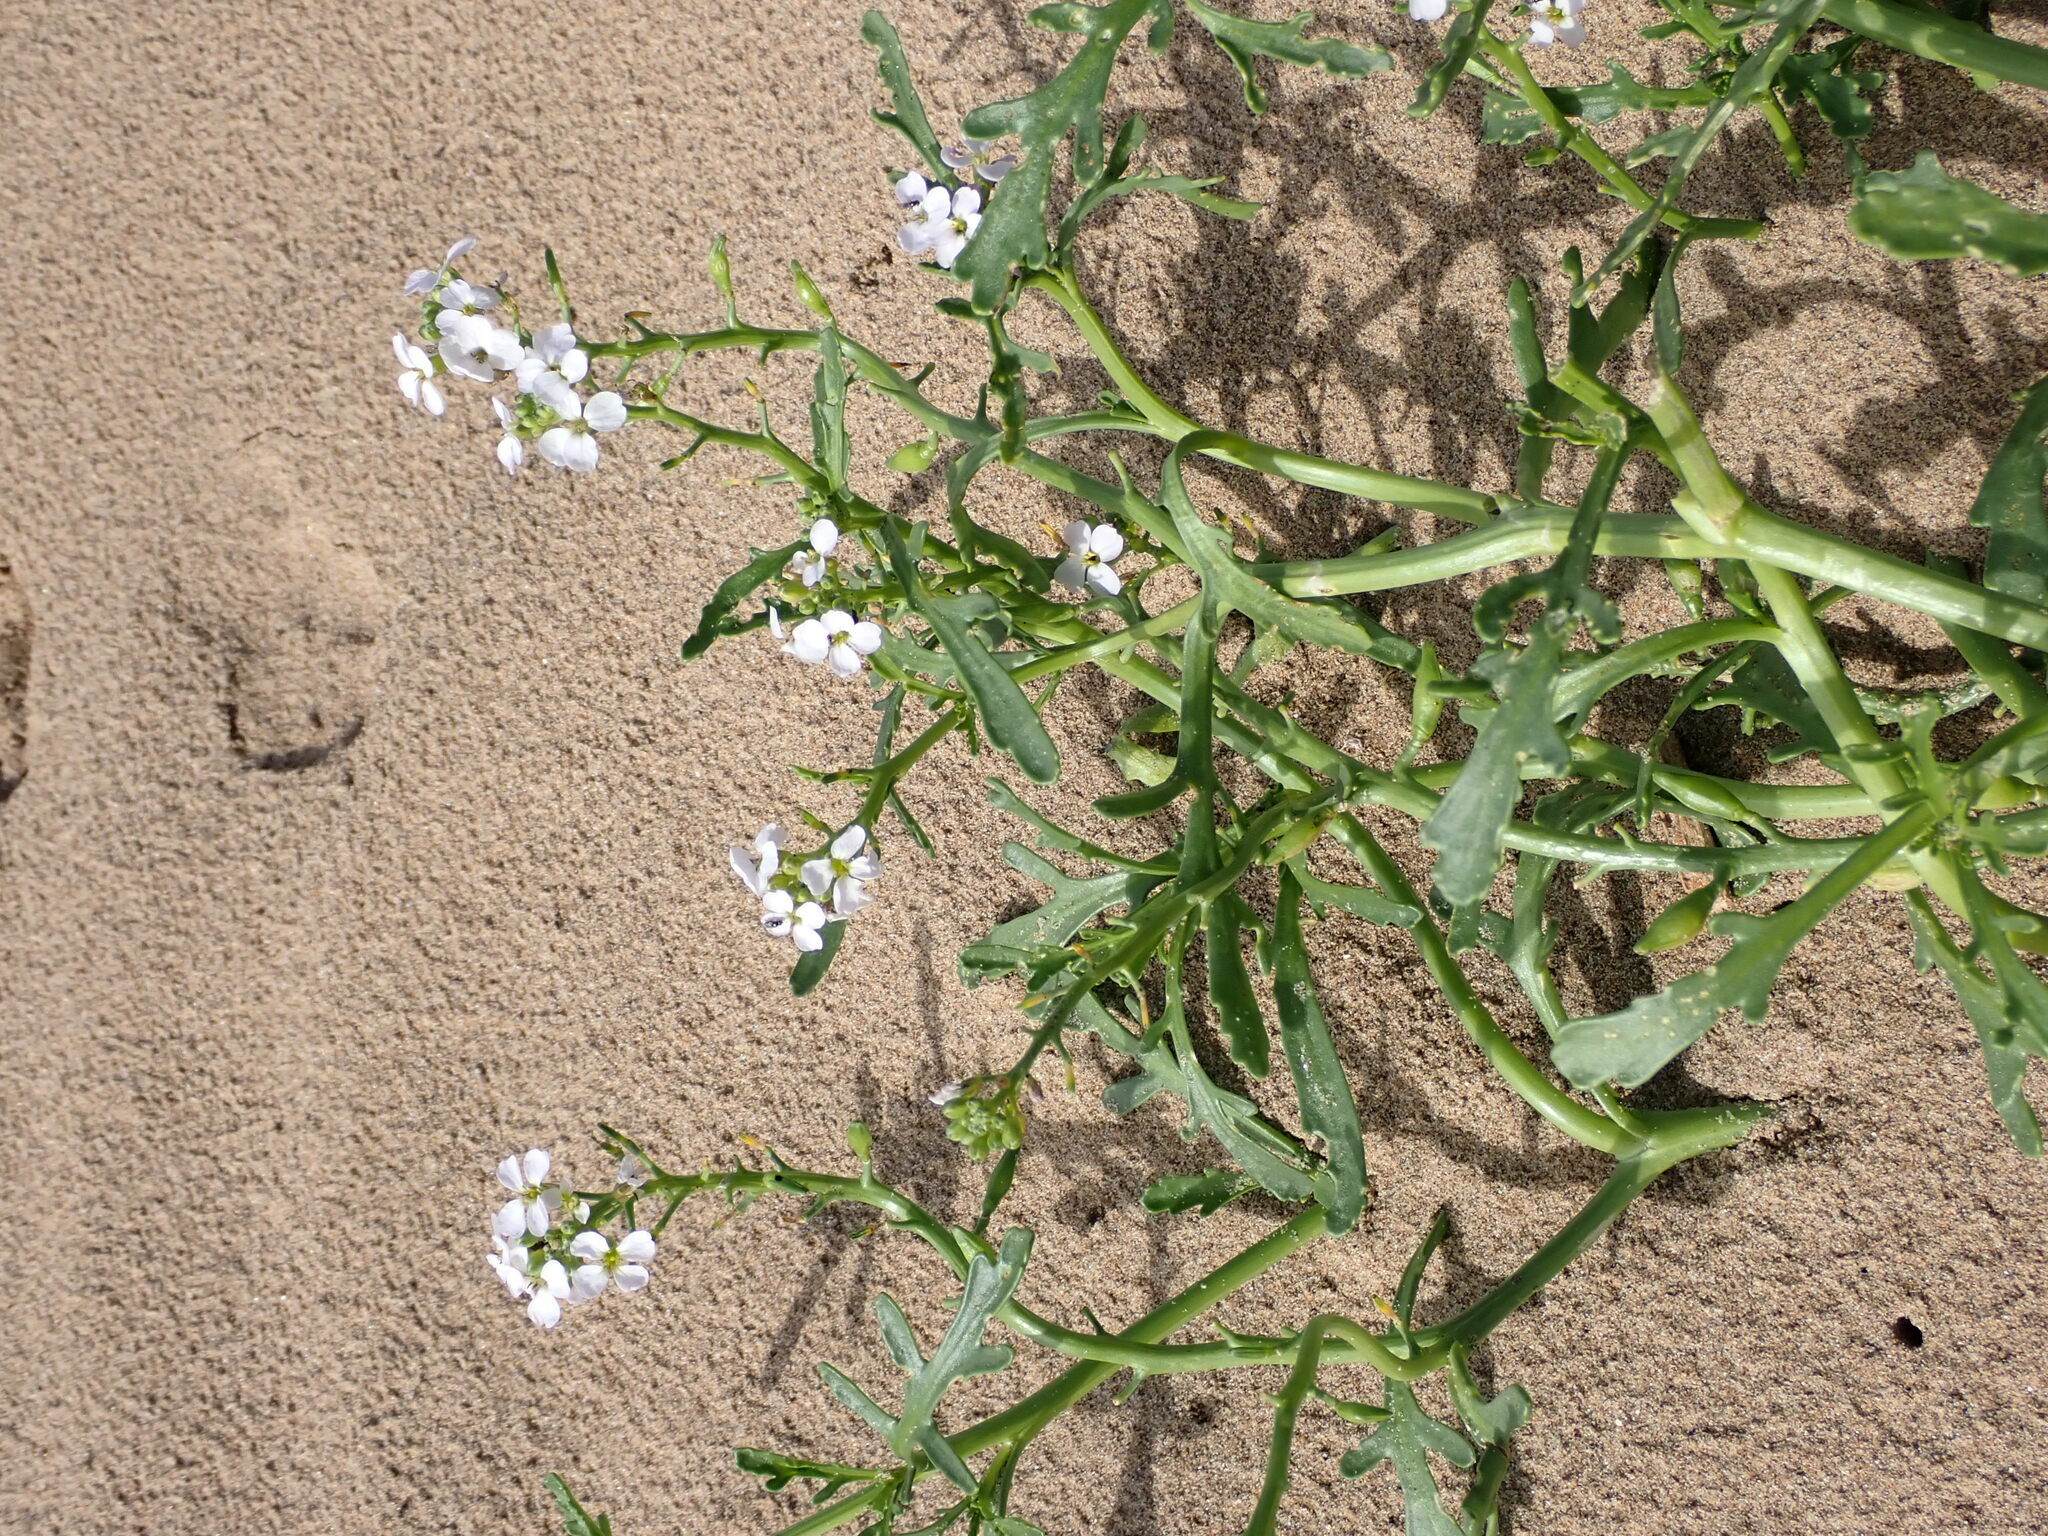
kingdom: Plantae
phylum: Tracheophyta
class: Magnoliopsida
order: Brassicales
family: Brassicaceae
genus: Cakile
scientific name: Cakile maritima
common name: Sea rocket
